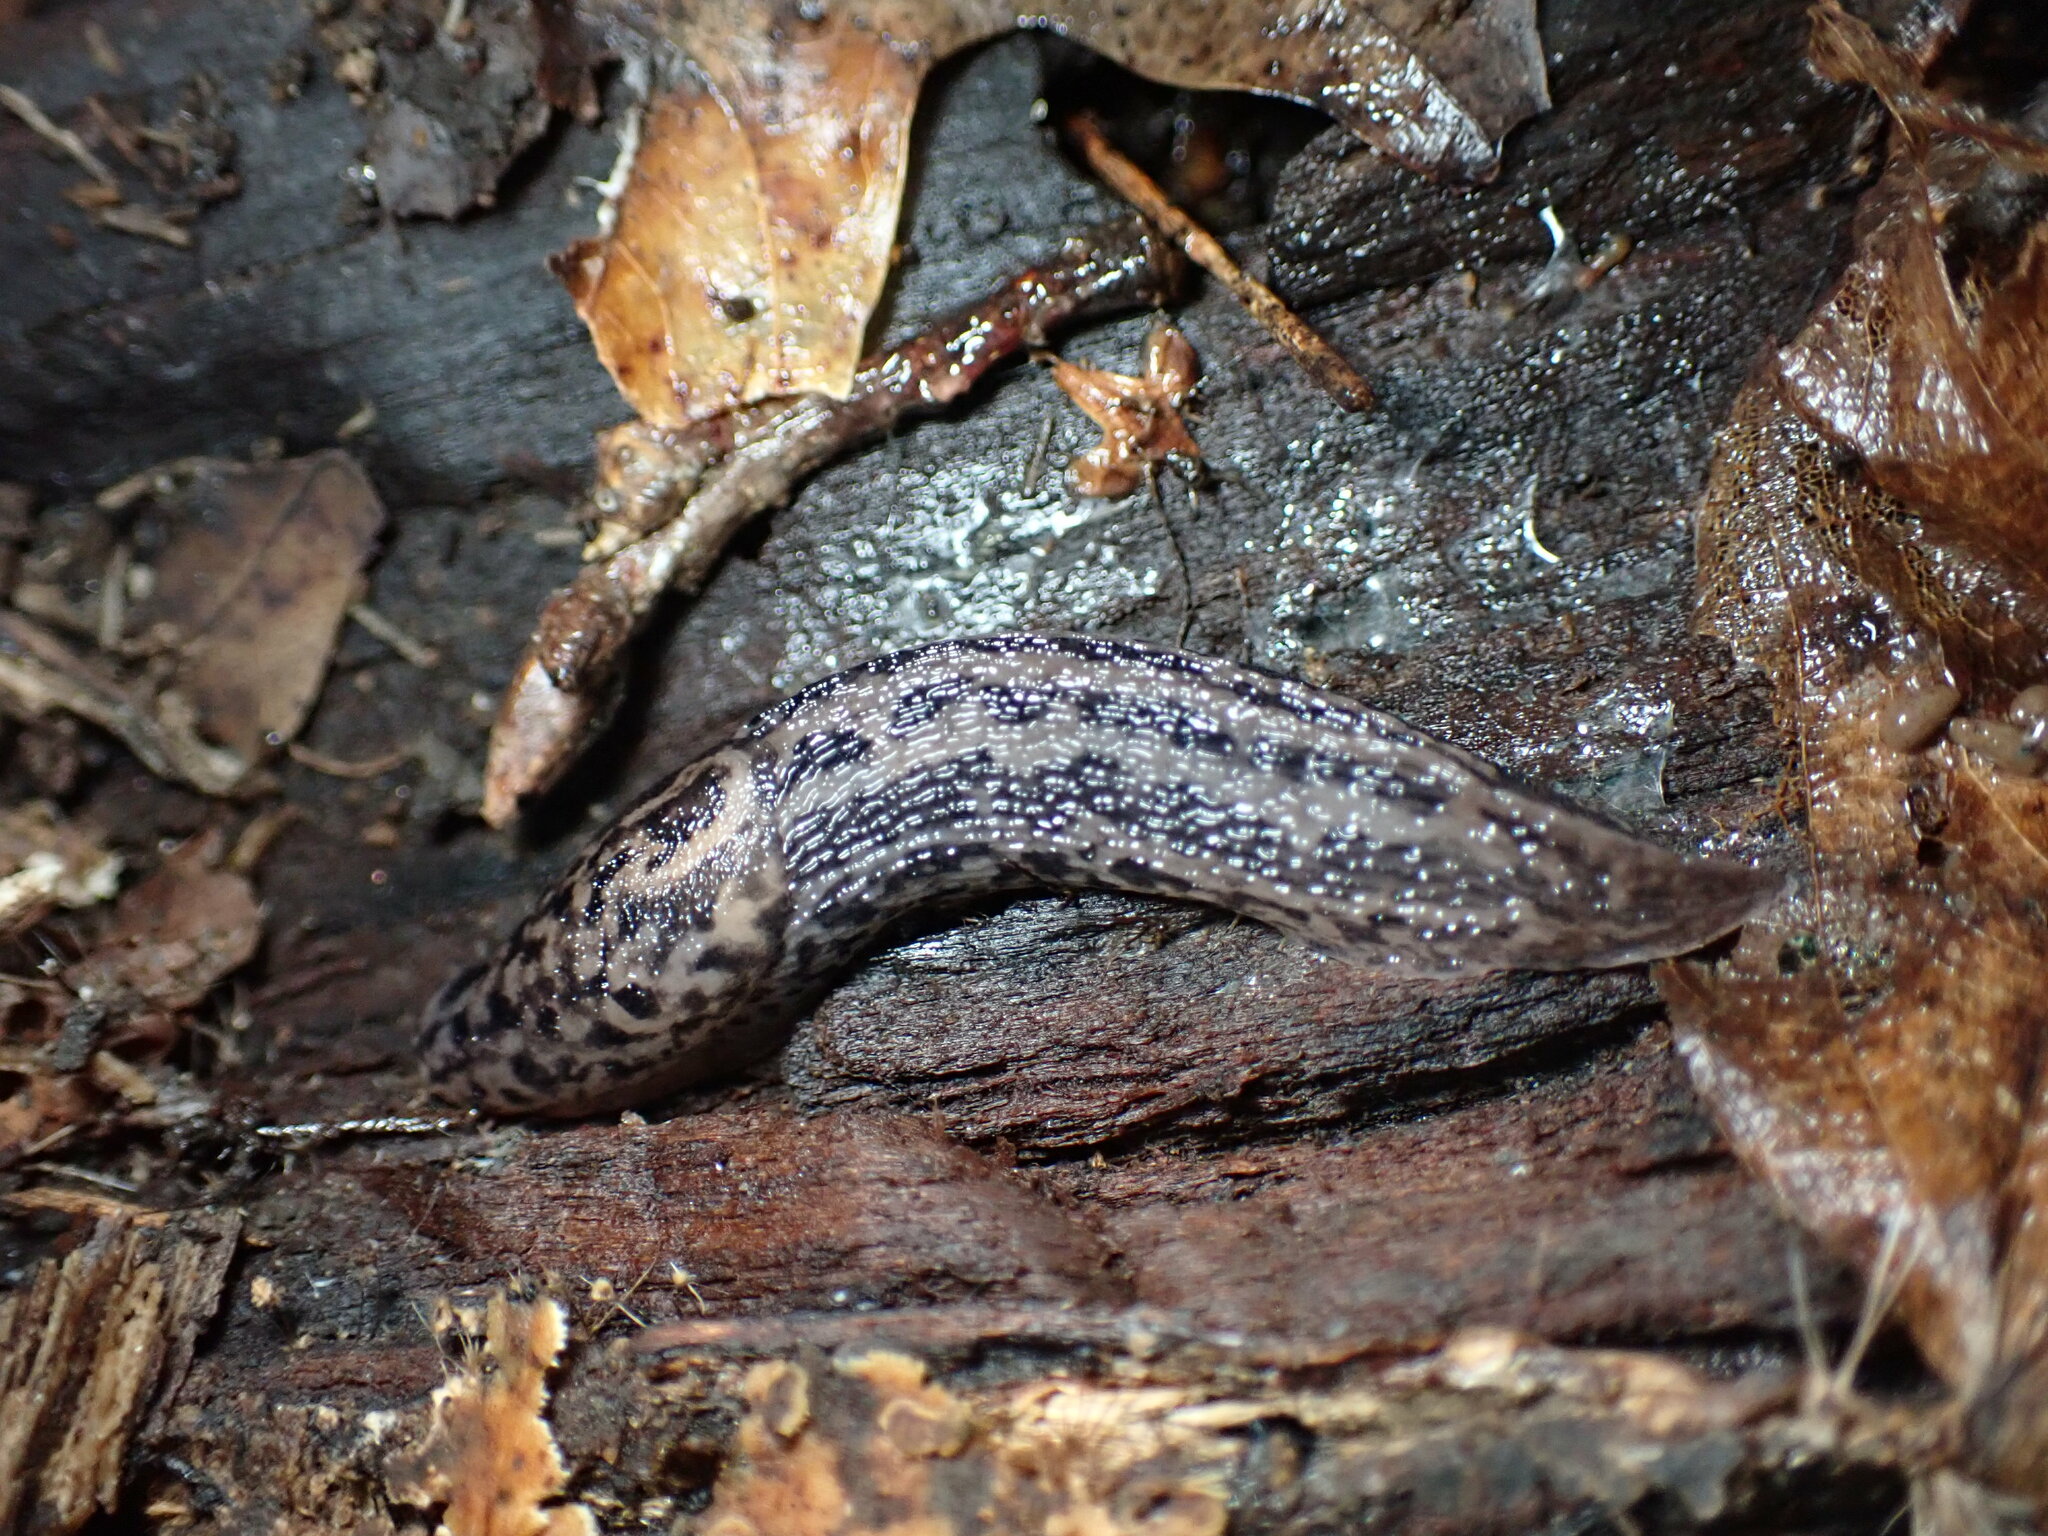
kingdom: Animalia
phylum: Mollusca
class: Gastropoda
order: Stylommatophora
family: Limacidae
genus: Limax
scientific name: Limax maximus
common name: Great grey slug
